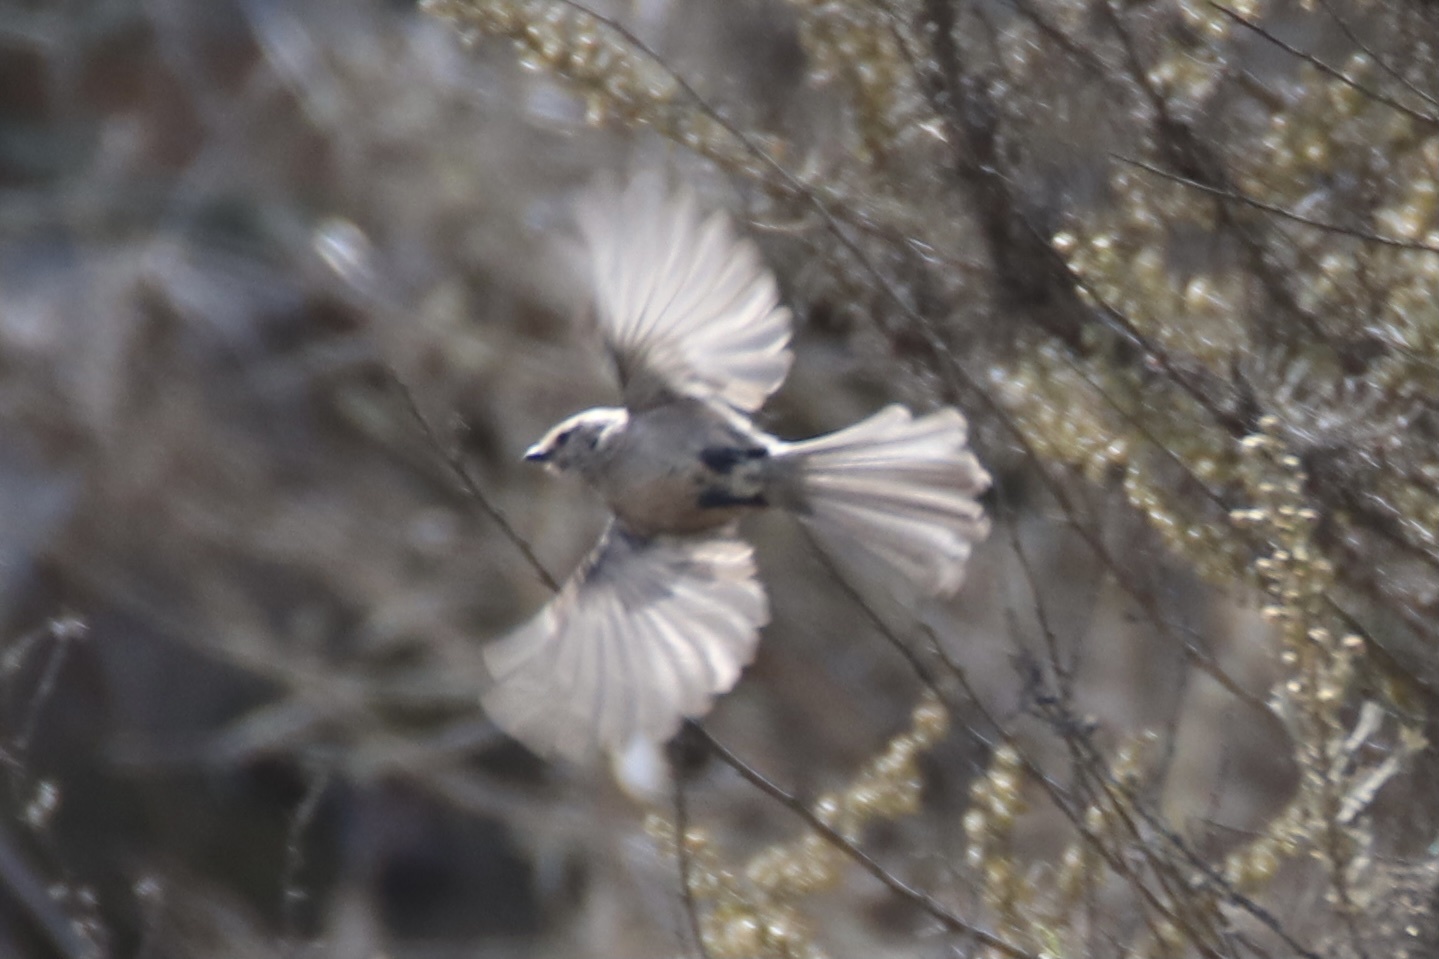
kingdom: Animalia
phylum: Chordata
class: Aves
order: Passeriformes
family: Aegithalidae
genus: Psaltriparus
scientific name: Psaltriparus minimus
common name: American bushtit
